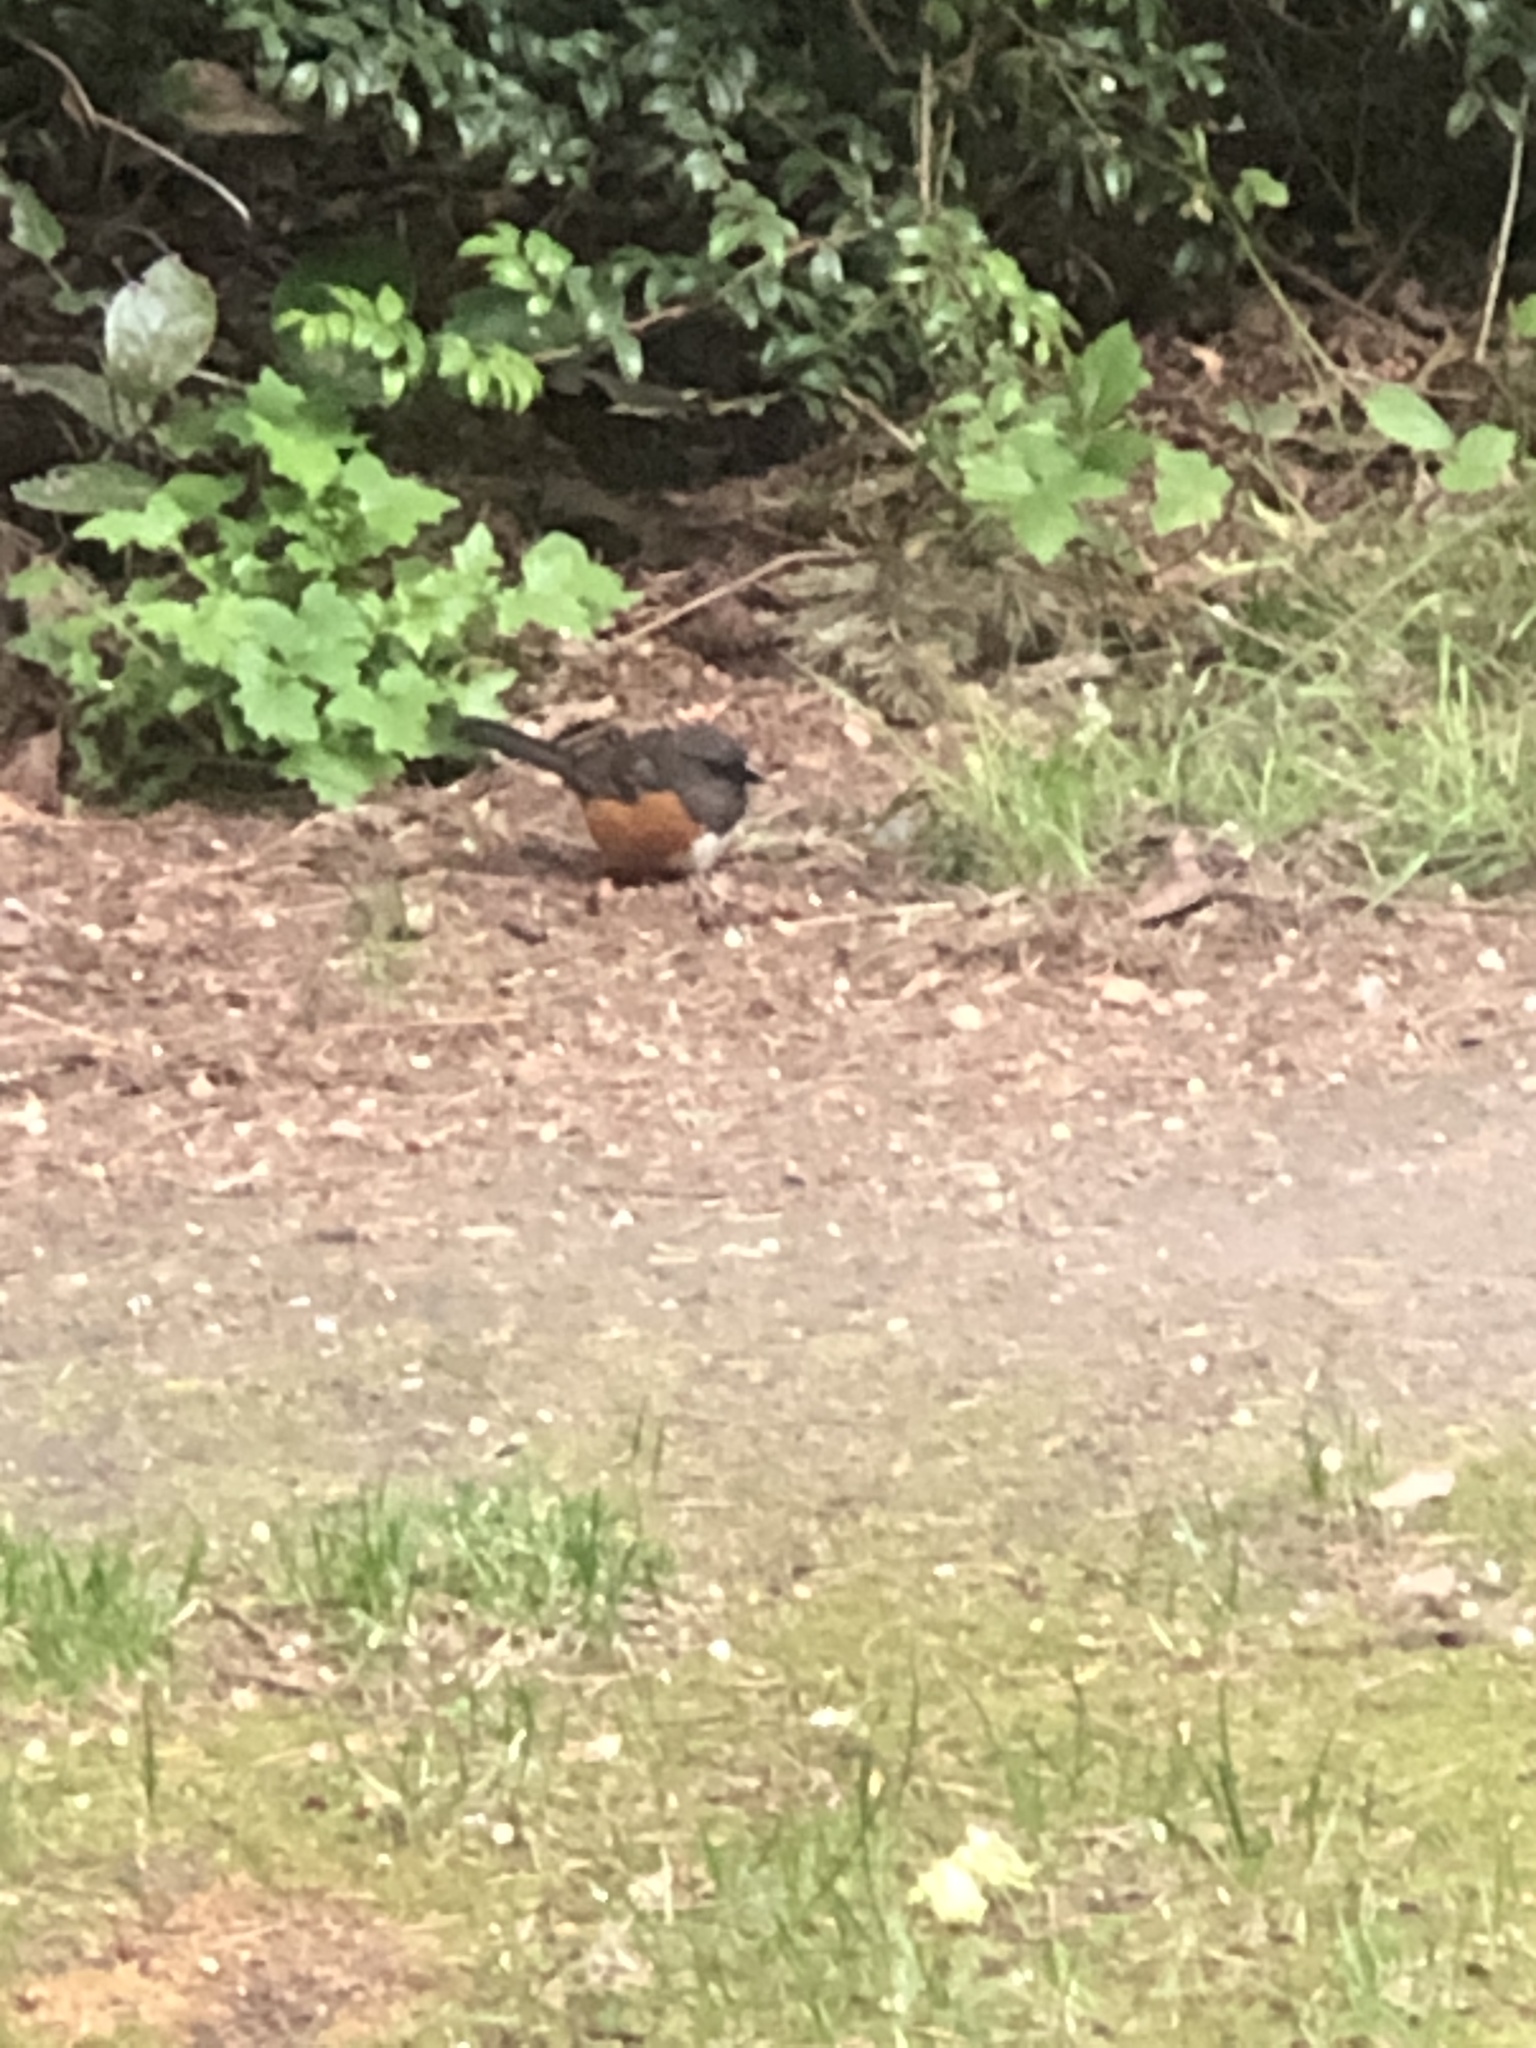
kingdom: Animalia
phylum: Chordata
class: Aves
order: Passeriformes
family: Passerellidae
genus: Pipilo
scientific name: Pipilo maculatus
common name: Spotted towhee
